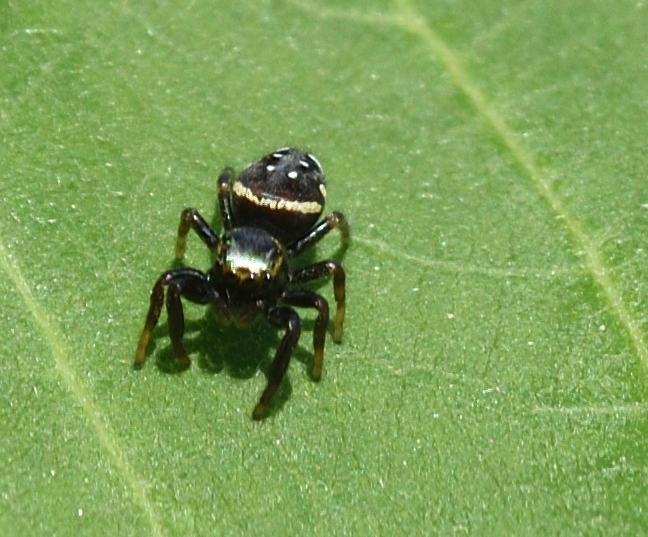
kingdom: Animalia
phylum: Arthropoda
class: Arachnida
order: Araneae
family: Salticidae
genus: Paraphidippus
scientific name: Paraphidippus aurantius
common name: Jumping spiders
